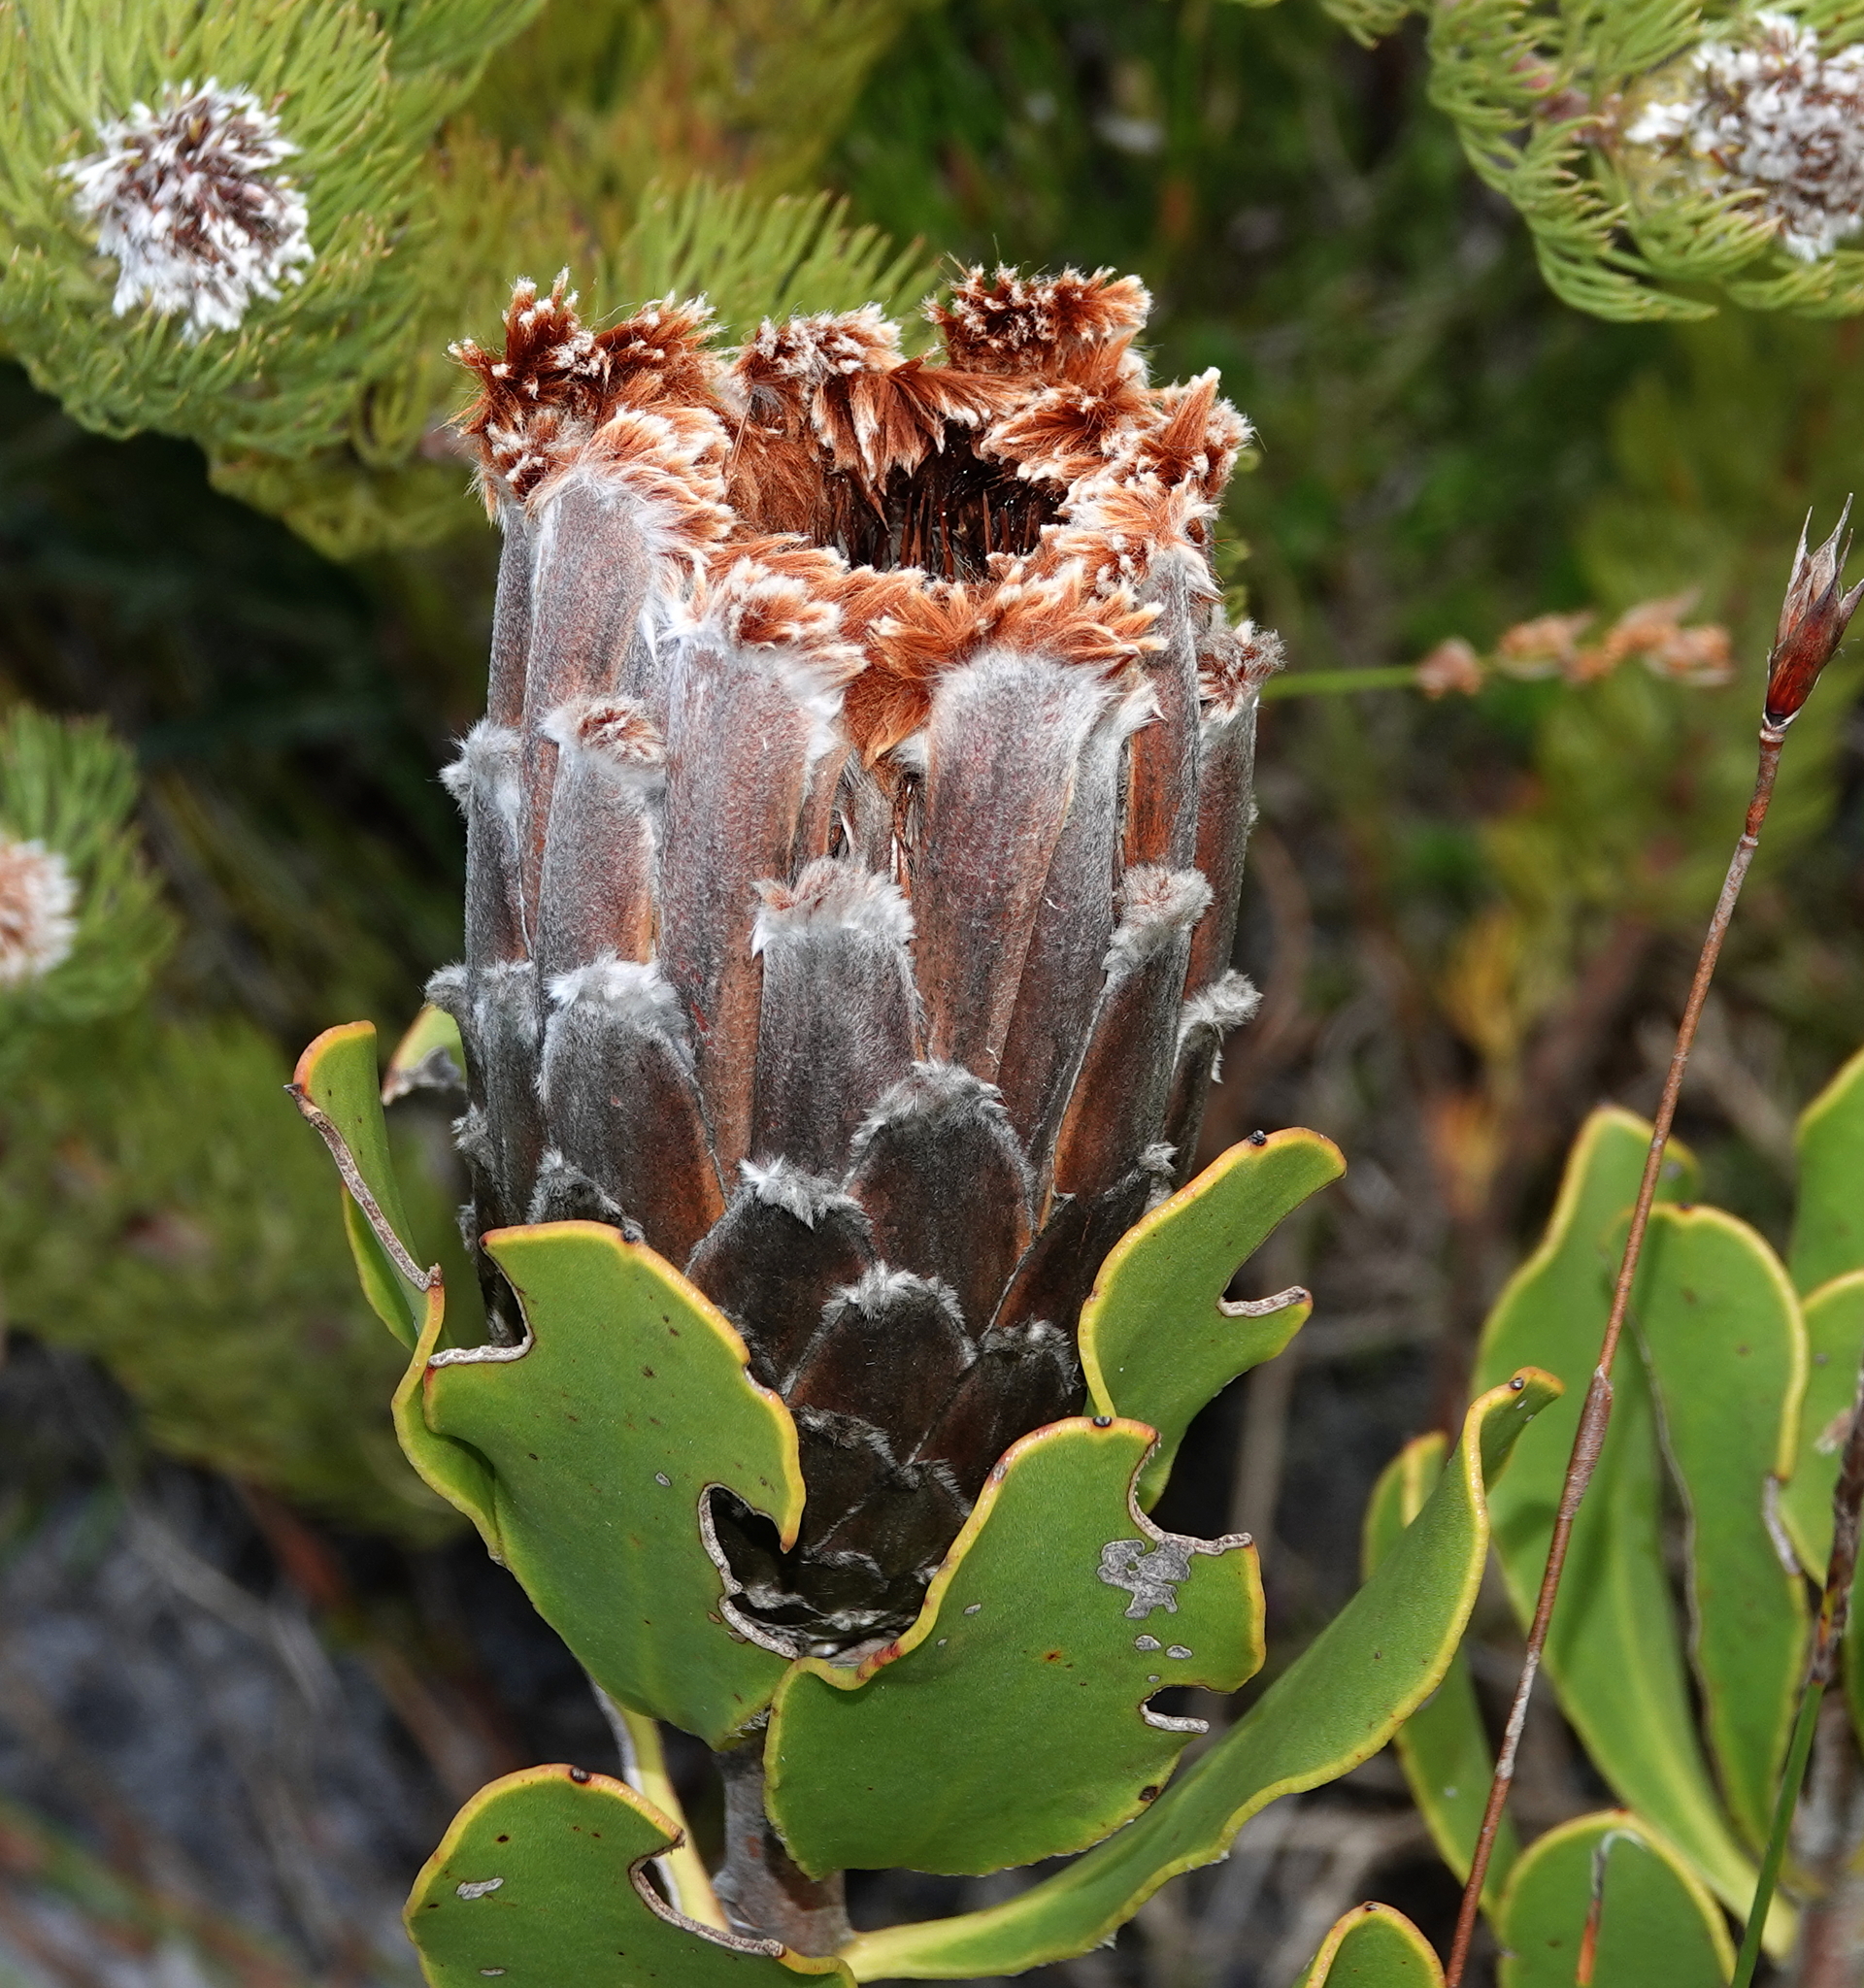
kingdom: Plantae
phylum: Tracheophyta
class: Magnoliopsida
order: Proteales
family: Proteaceae
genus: Protea
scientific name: Protea speciosa
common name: Brown-beard sugarbush
